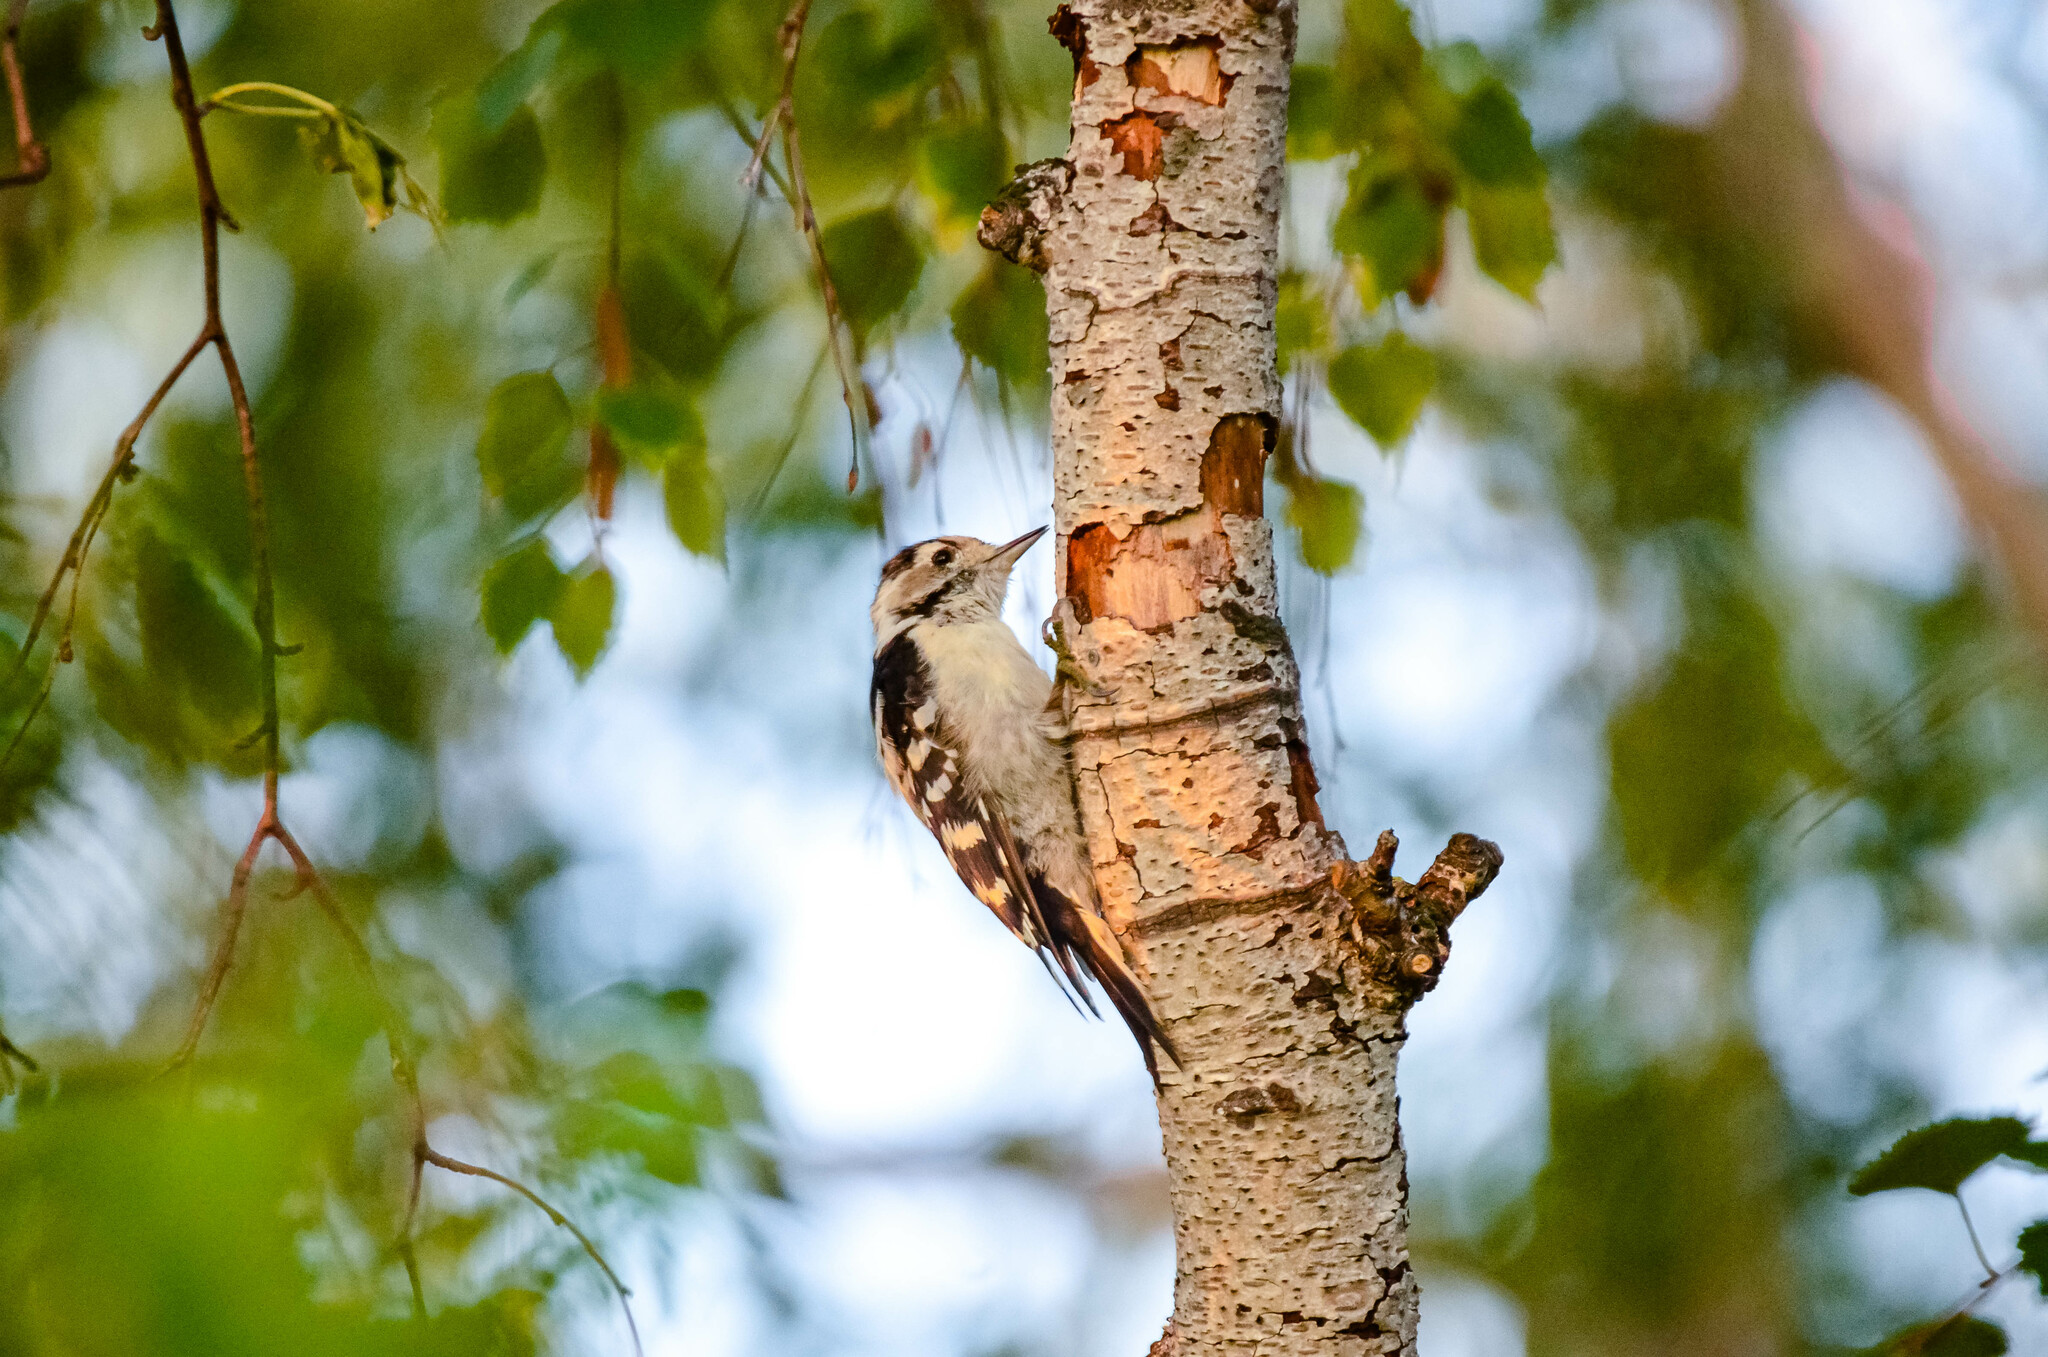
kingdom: Animalia
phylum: Chordata
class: Aves
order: Piciformes
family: Picidae
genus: Dryobates
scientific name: Dryobates minor
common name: Lesser spotted woodpecker
